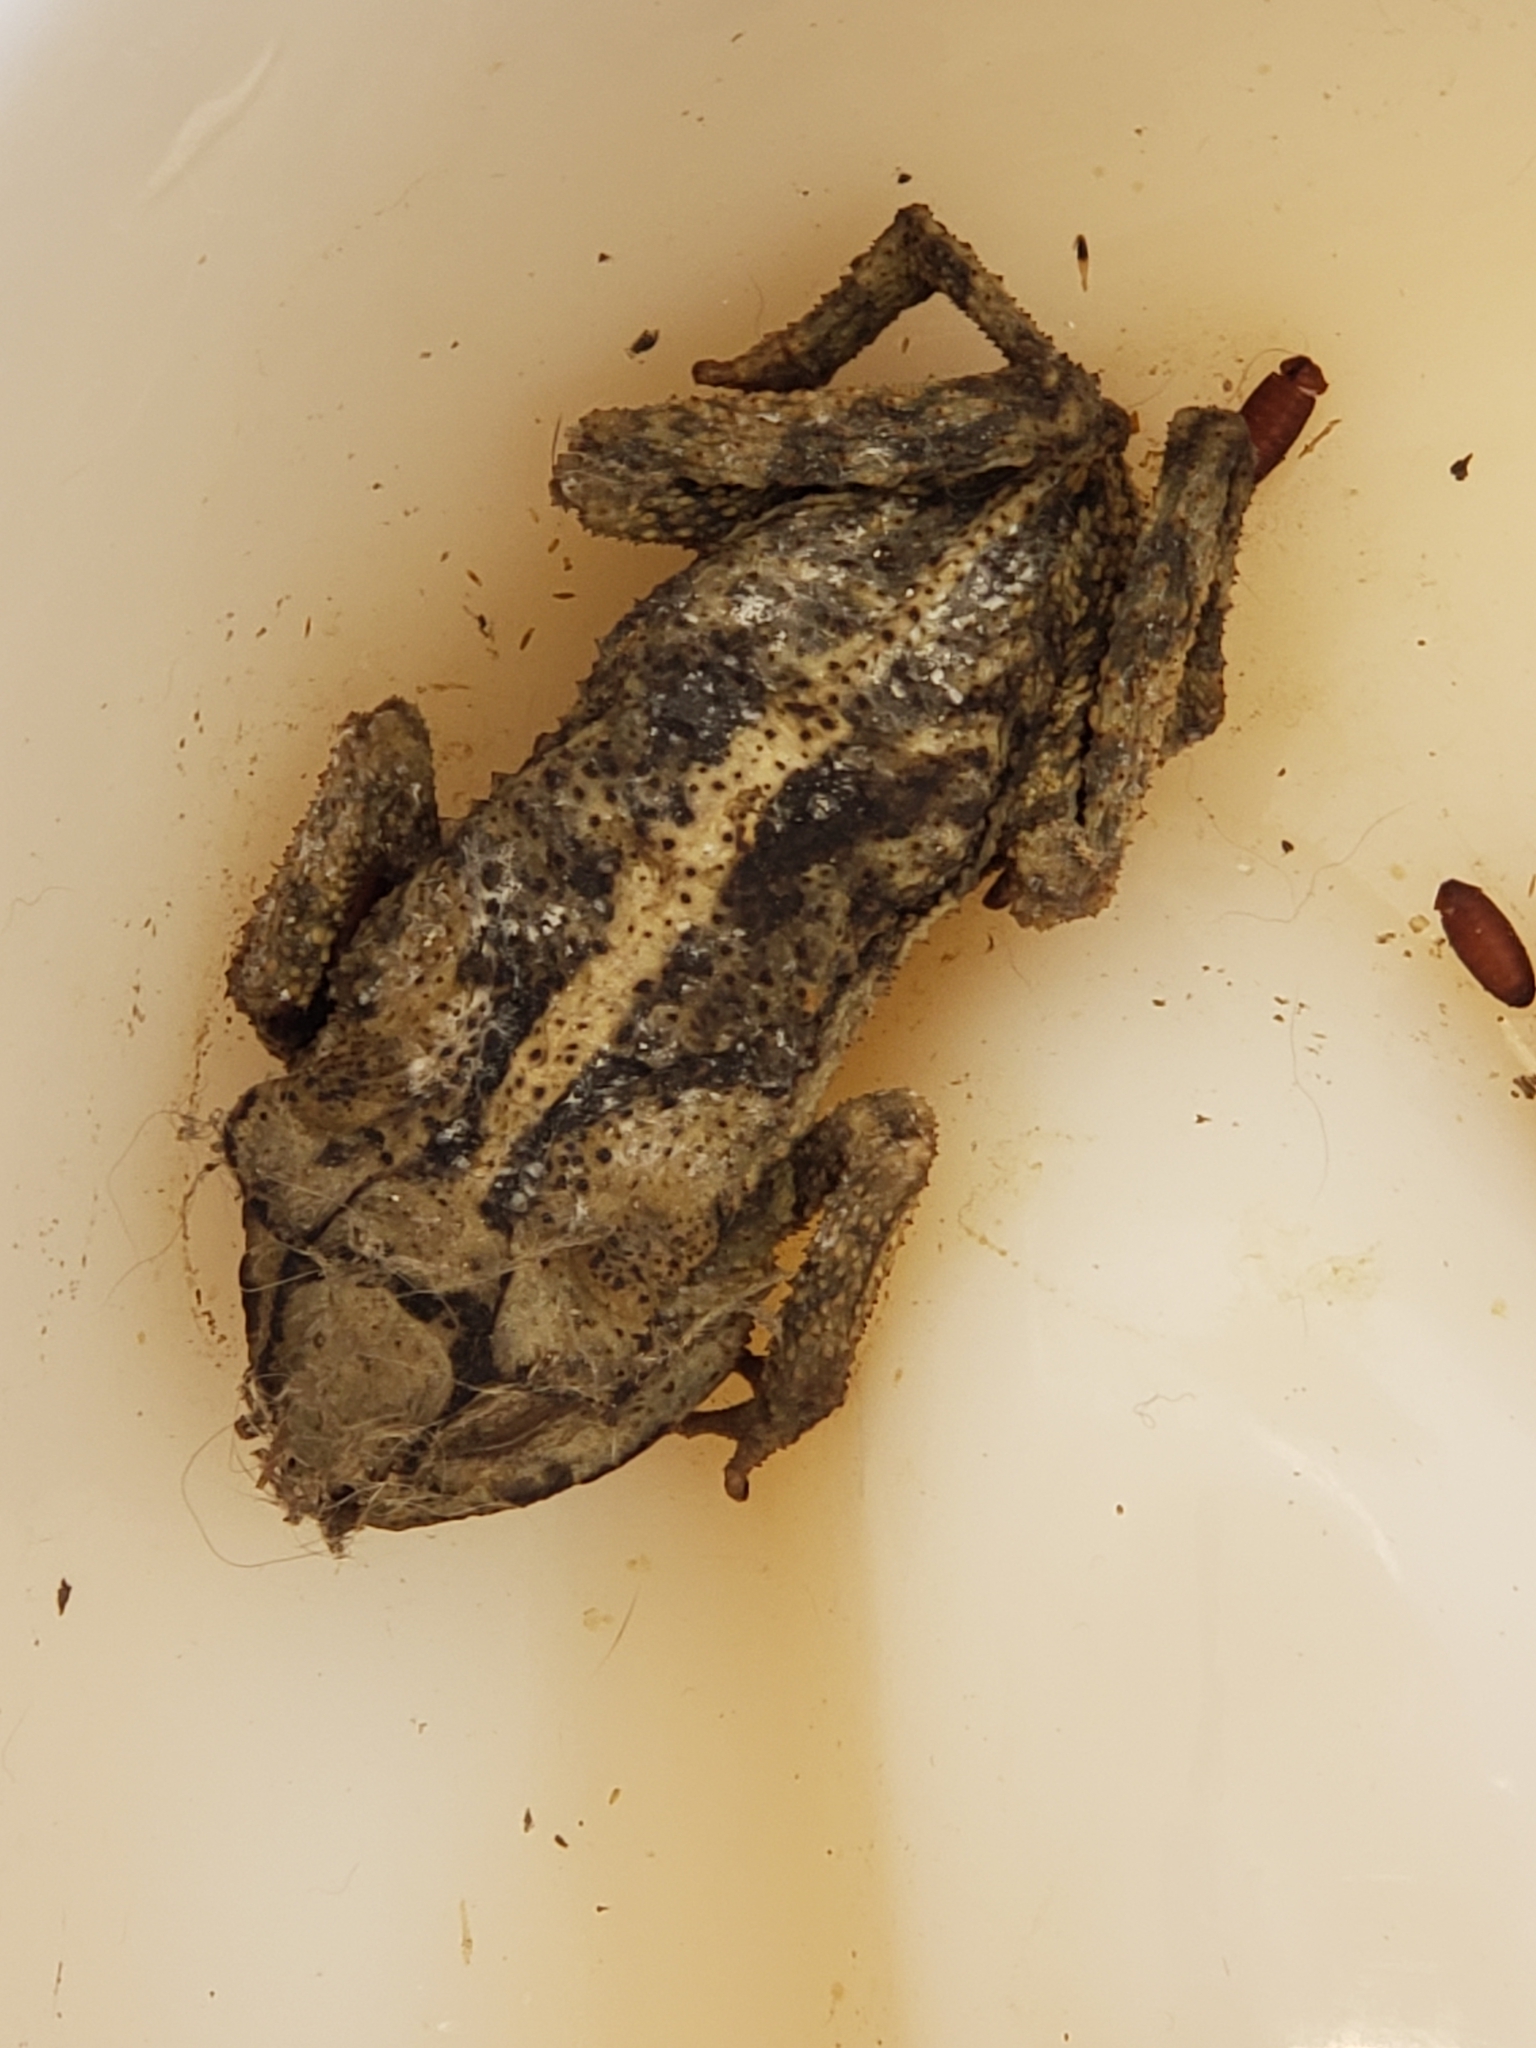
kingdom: Animalia
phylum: Chordata
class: Amphibia
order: Anura
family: Bufonidae
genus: Incilius
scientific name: Incilius nebulifer
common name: Gulf coast toad
